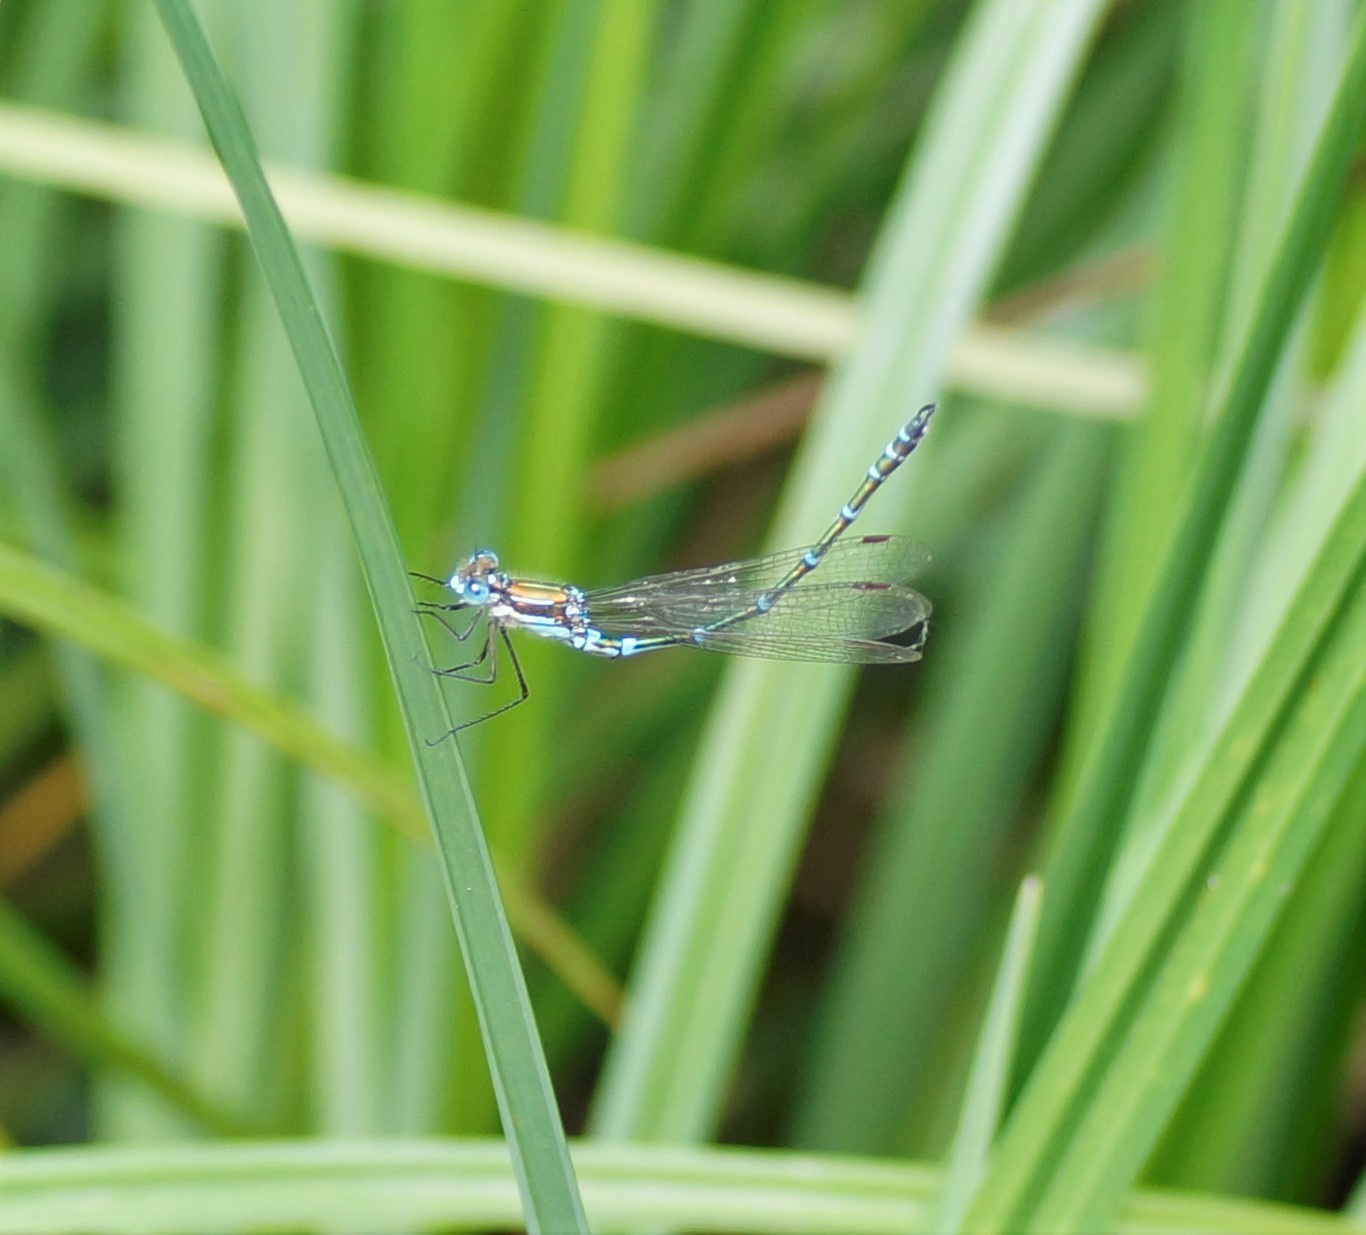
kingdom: Animalia
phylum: Arthropoda
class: Insecta
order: Odonata
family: Lestidae
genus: Austrolestes
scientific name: Austrolestes cingulatus
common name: Metallic ringtail
